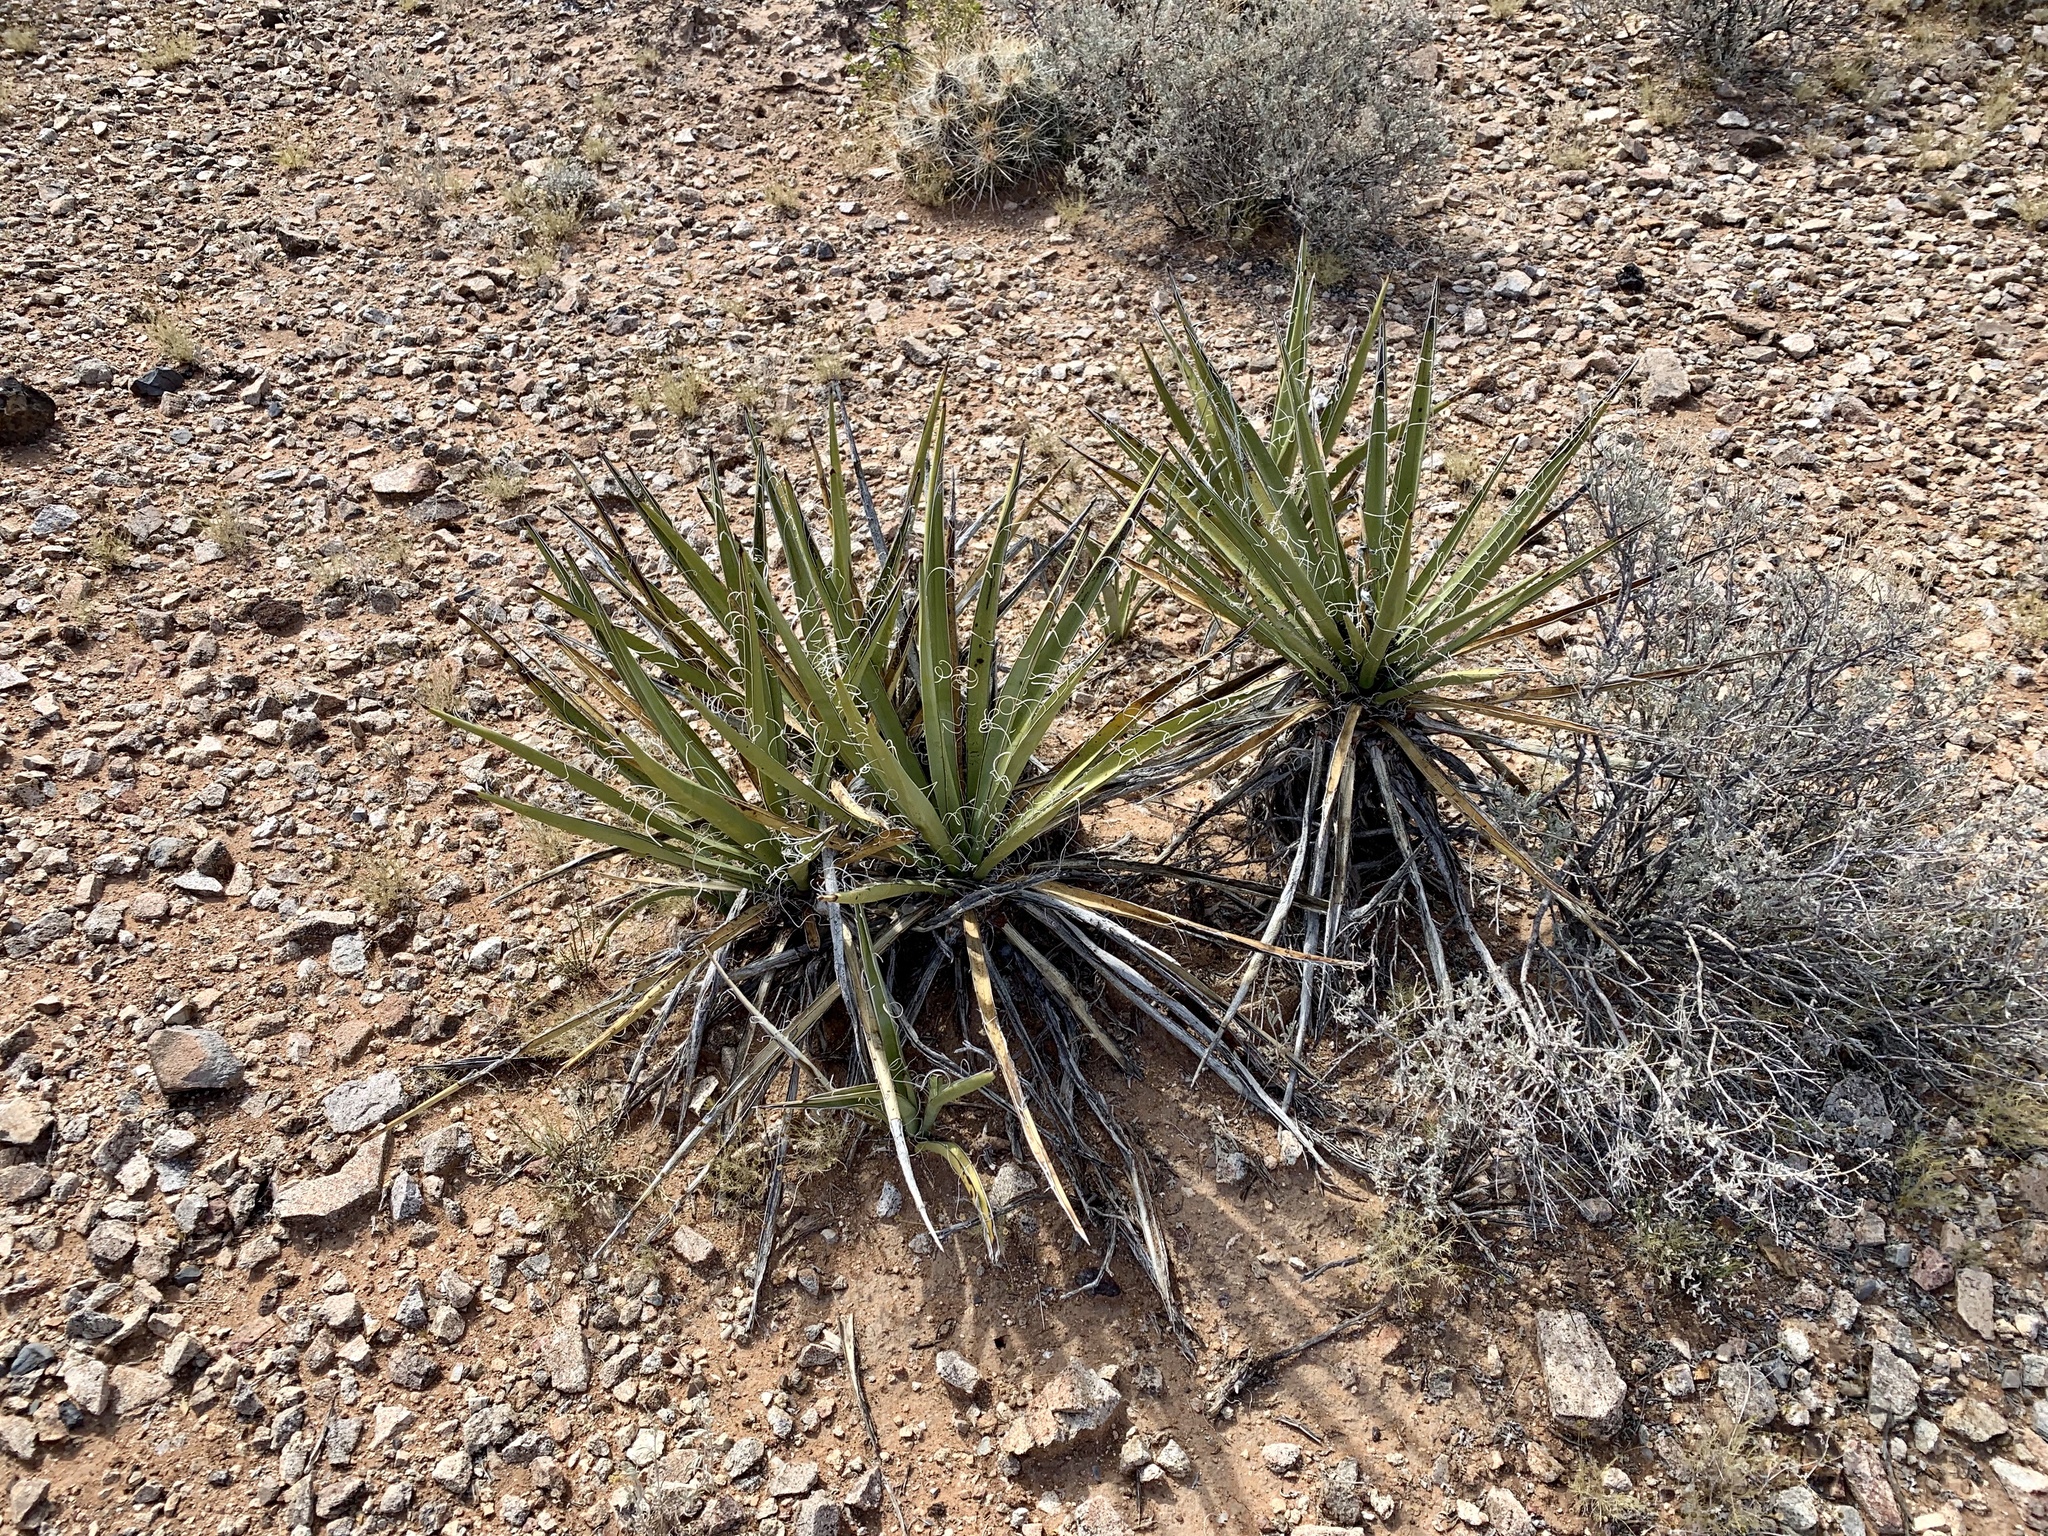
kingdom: Plantae
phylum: Tracheophyta
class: Liliopsida
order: Asparagales
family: Asparagaceae
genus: Yucca
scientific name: Yucca baccata
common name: Banana yucca
